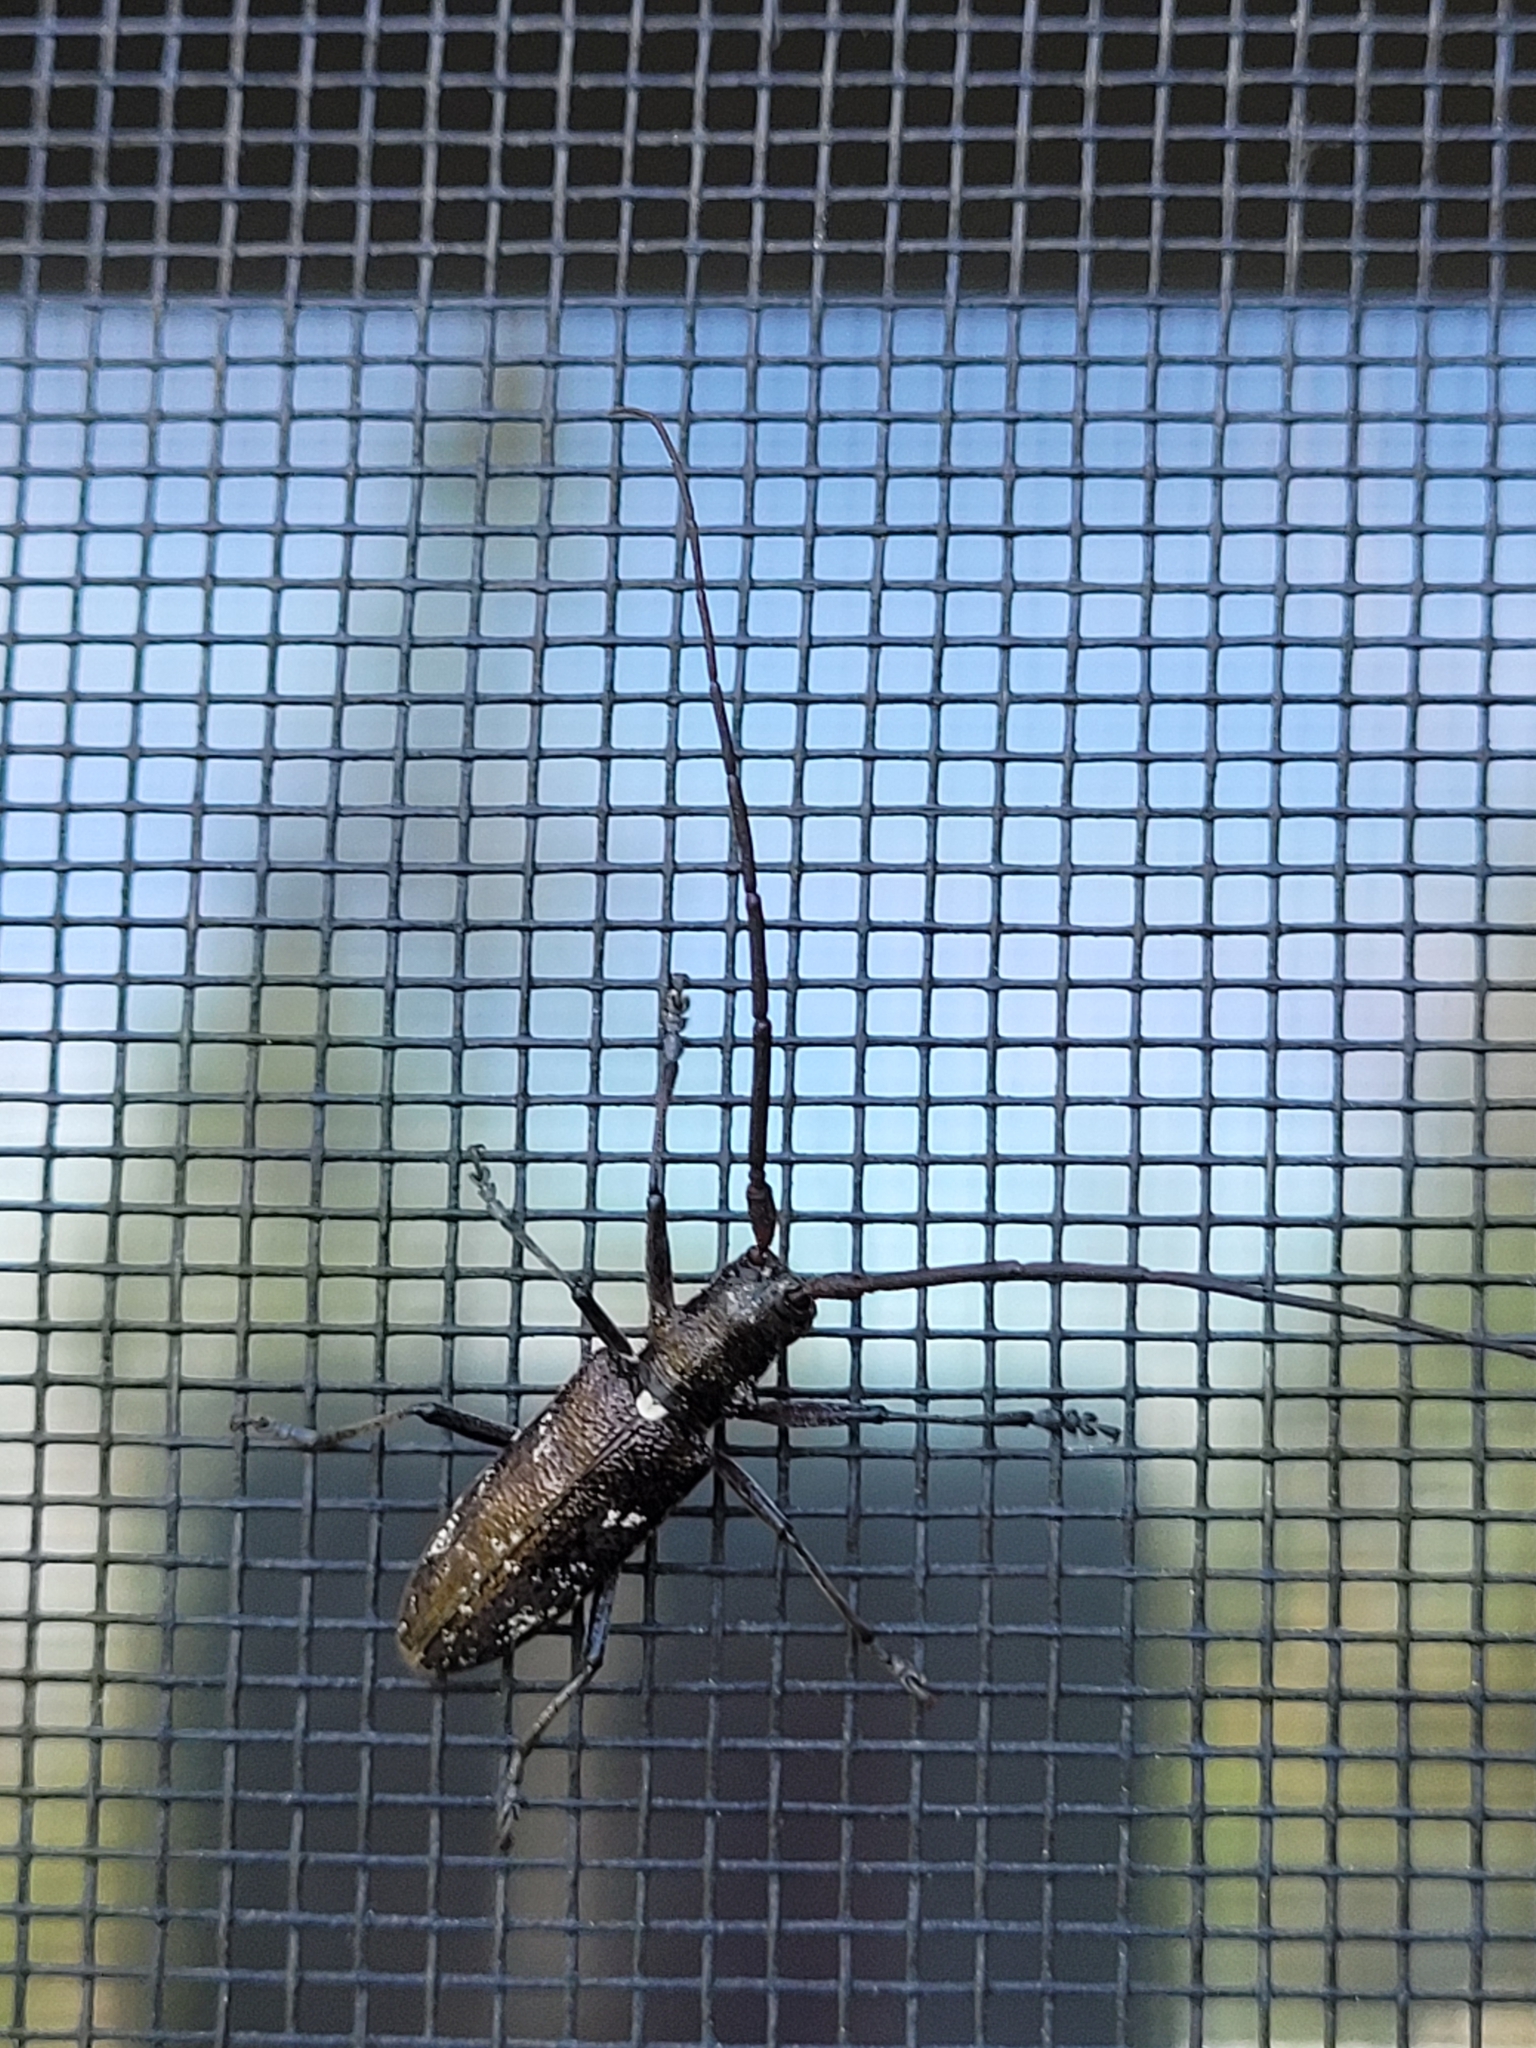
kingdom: Animalia
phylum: Arthropoda
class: Insecta
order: Coleoptera
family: Cerambycidae
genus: Monochamus
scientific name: Monochamus scutellatus
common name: White-spotted sawyer beetle
